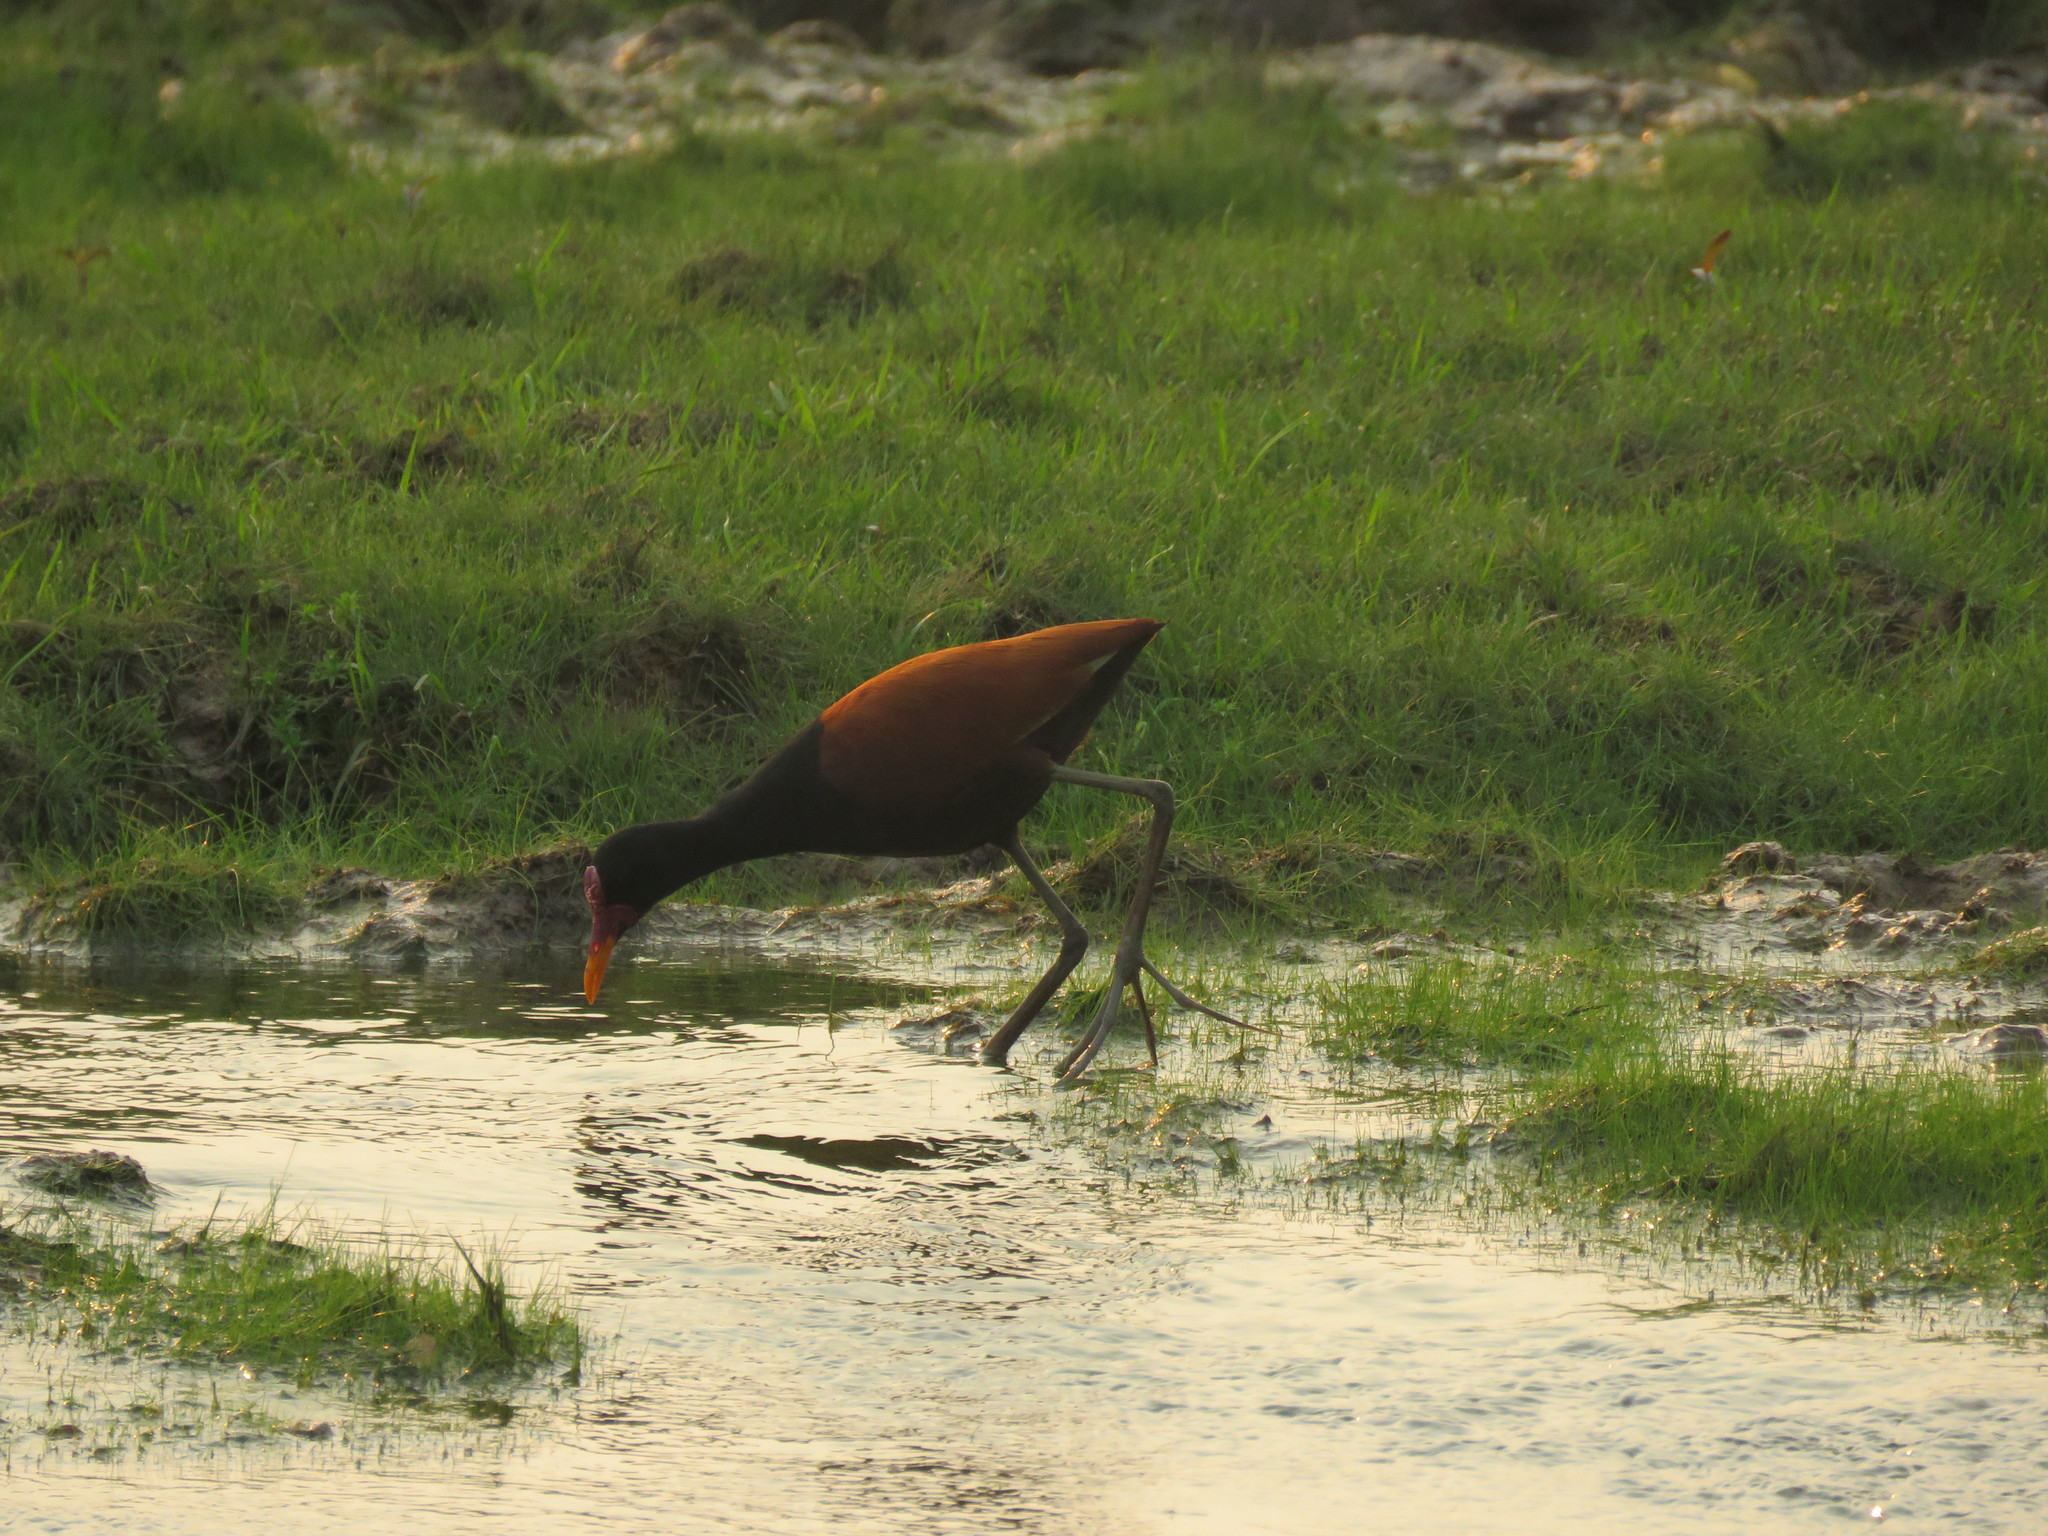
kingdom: Animalia
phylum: Chordata
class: Aves
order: Charadriiformes
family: Jacanidae
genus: Jacana
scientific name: Jacana jacana
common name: Wattled jacana
